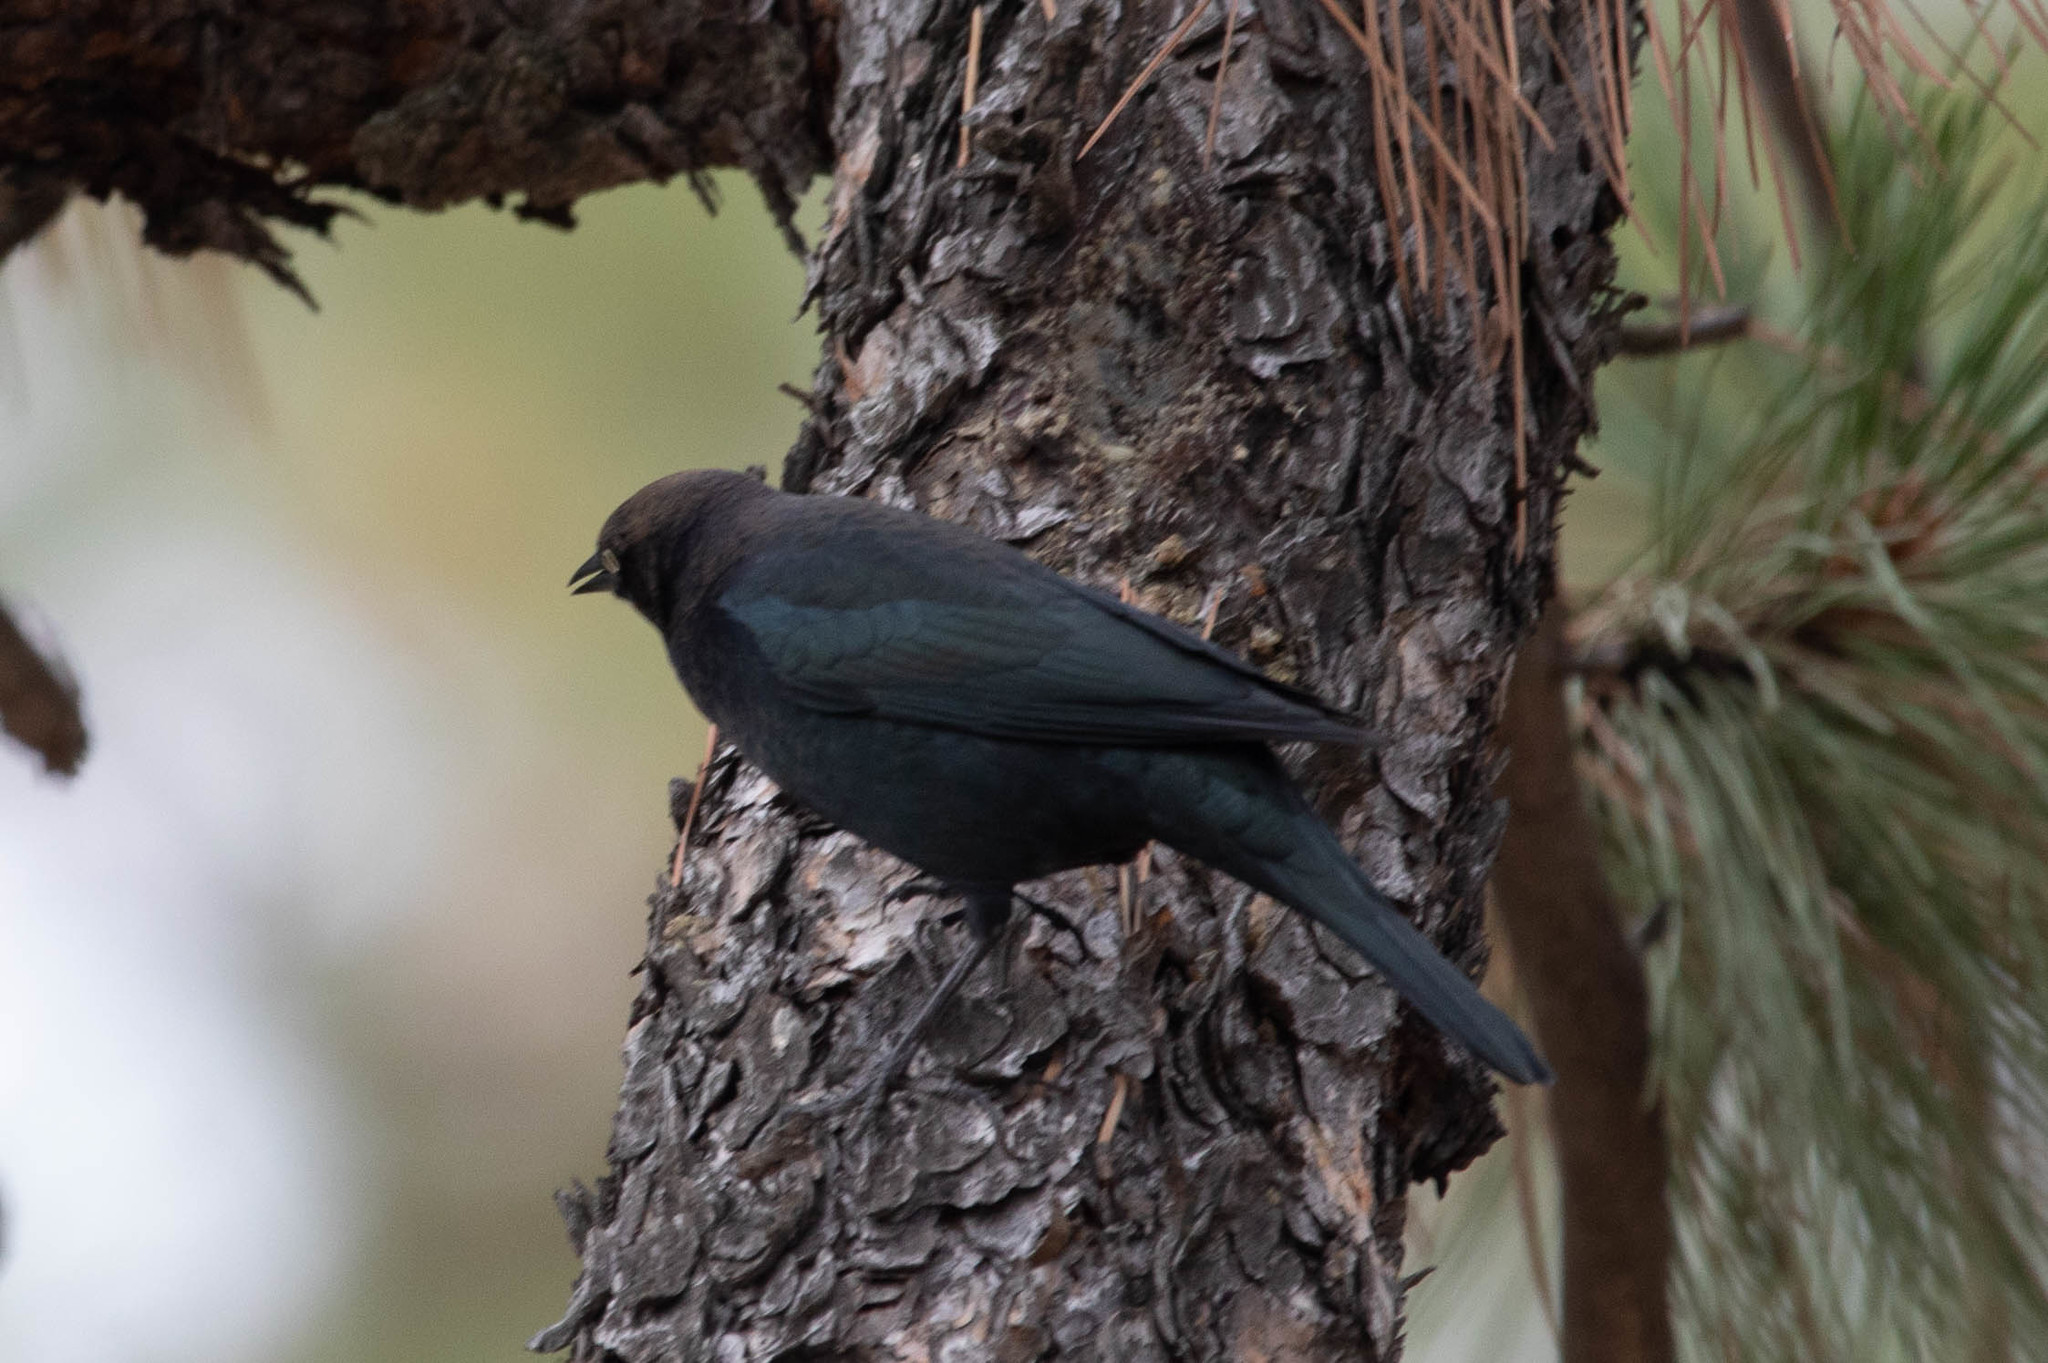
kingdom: Animalia
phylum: Chordata
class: Aves
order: Passeriformes
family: Icteridae
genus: Euphagus
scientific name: Euphagus cyanocephalus
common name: Brewer's blackbird
